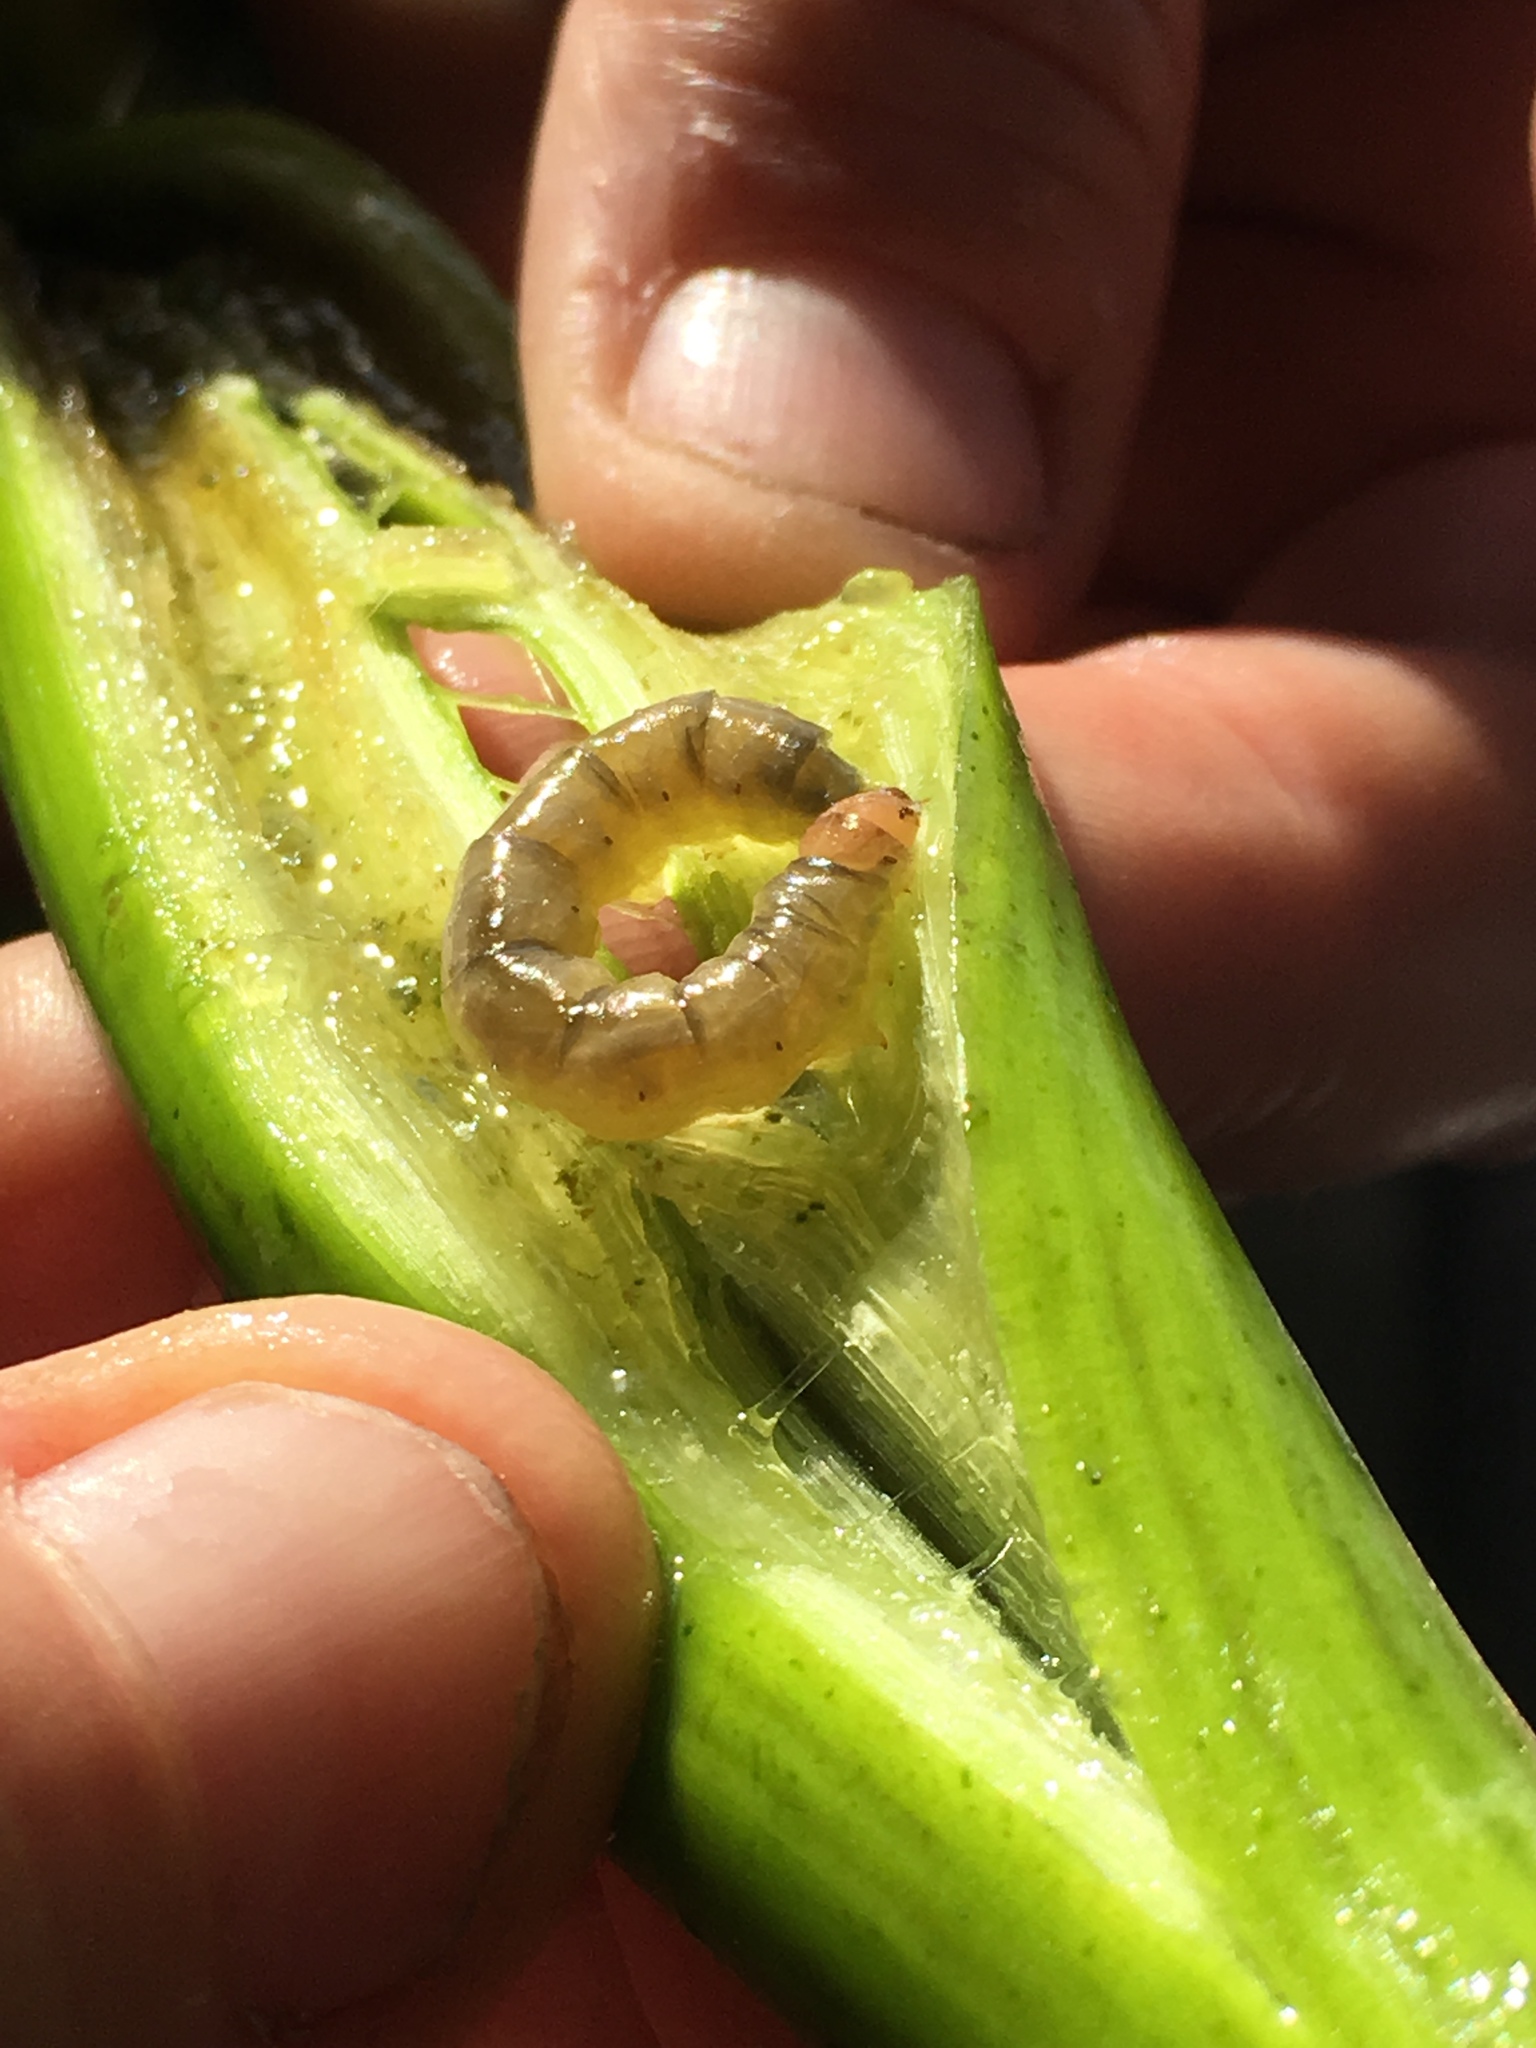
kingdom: Animalia
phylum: Arthropoda
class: Insecta
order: Lepidoptera
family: Noctuidae
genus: Bellura
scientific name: Bellura gortynoides
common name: White-tailed diver moth
